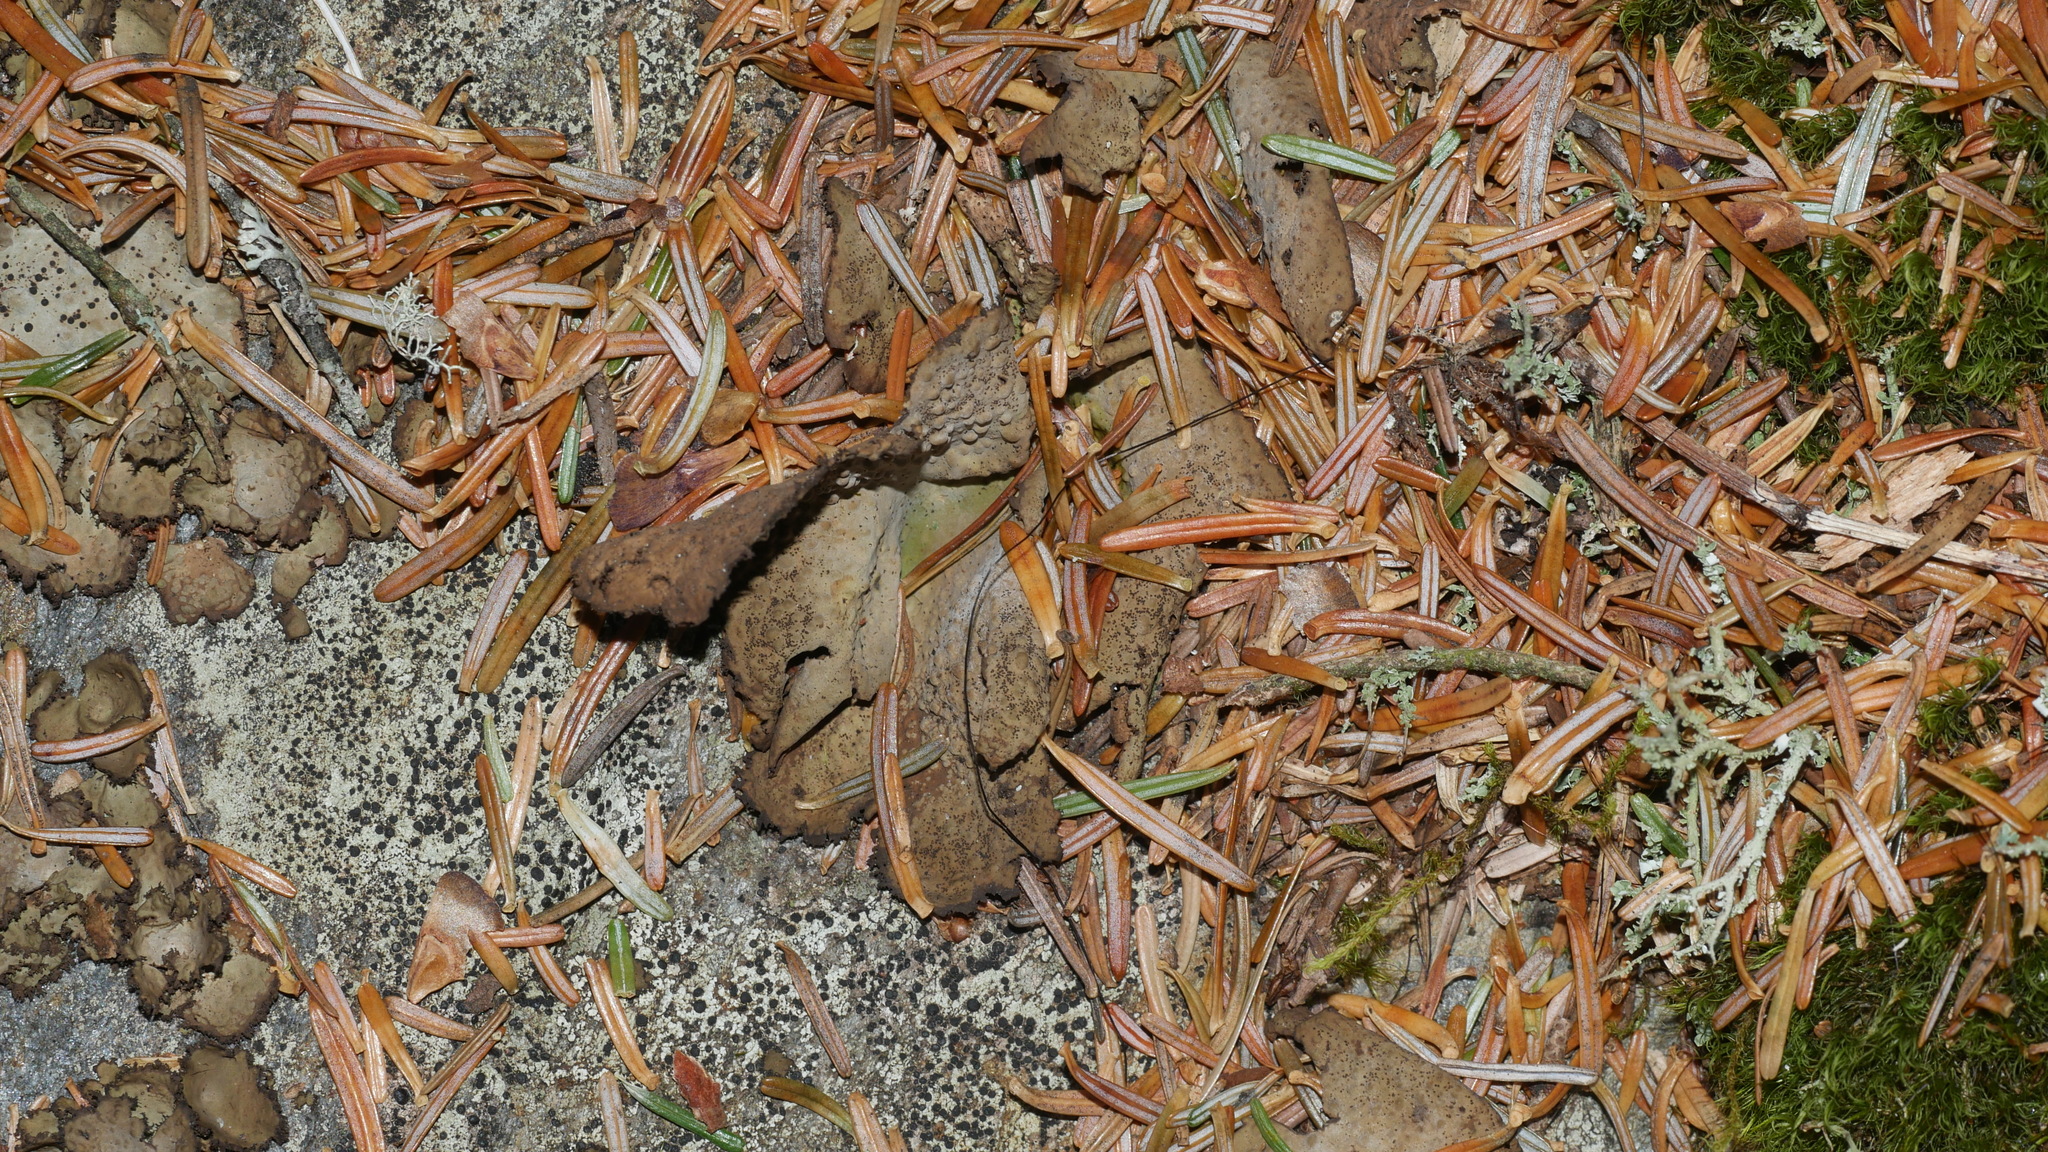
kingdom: Fungi
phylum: Ascomycota
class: Lecanoromycetes
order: Umbilicariales
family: Umbilicariaceae
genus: Lasallia
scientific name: Lasallia pensylvanica
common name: Blackened toadskin lichen
